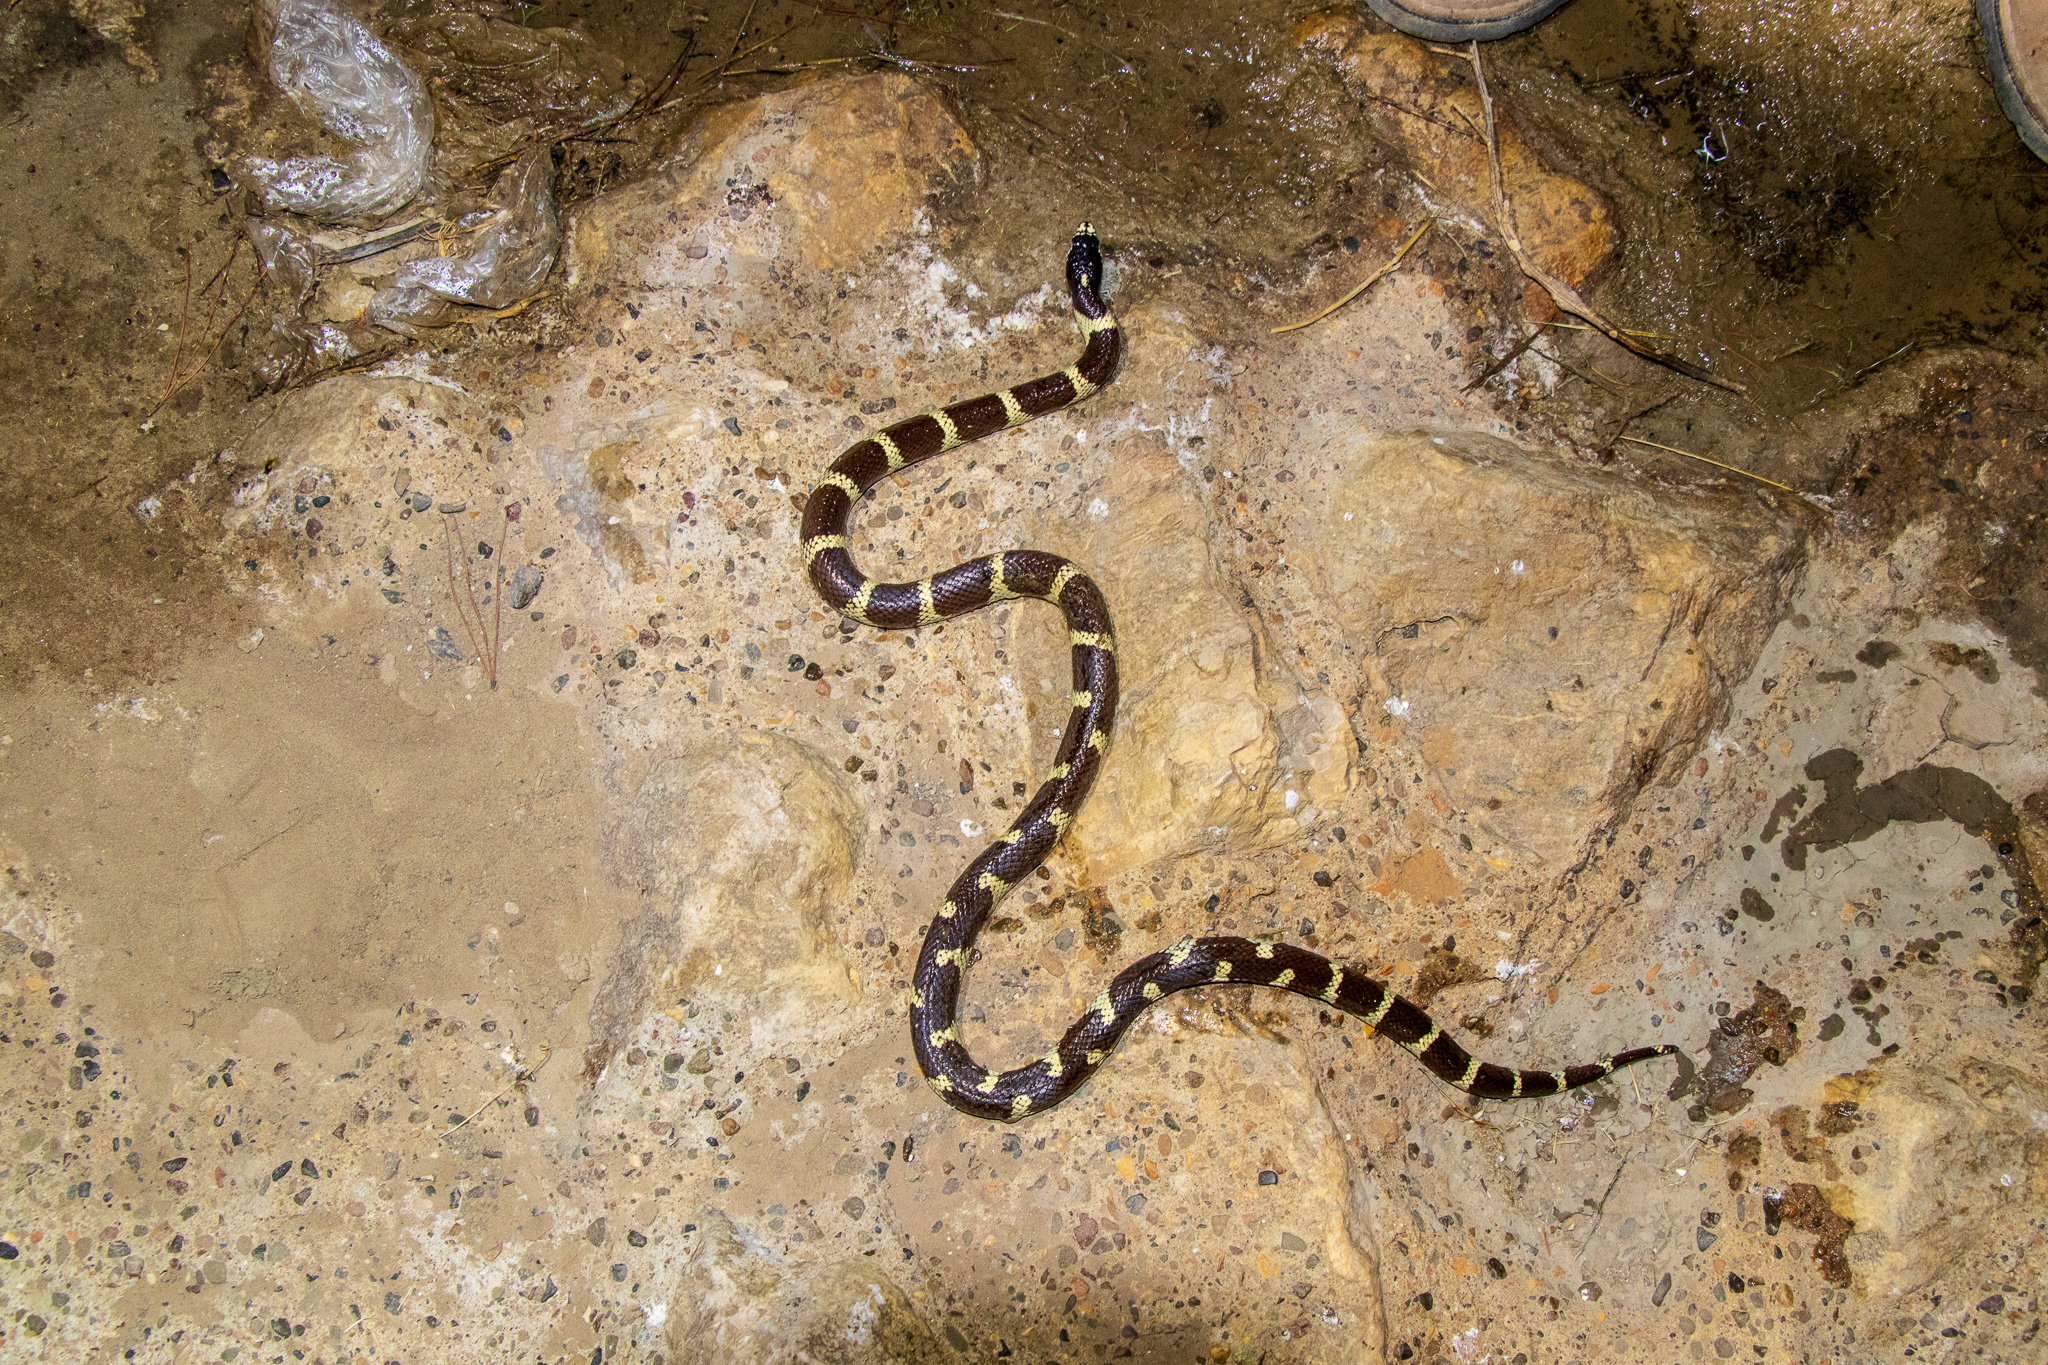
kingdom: Animalia
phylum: Chordata
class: Squamata
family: Colubridae
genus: Lampropeltis
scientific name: Lampropeltis californiae
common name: California kingsnake
